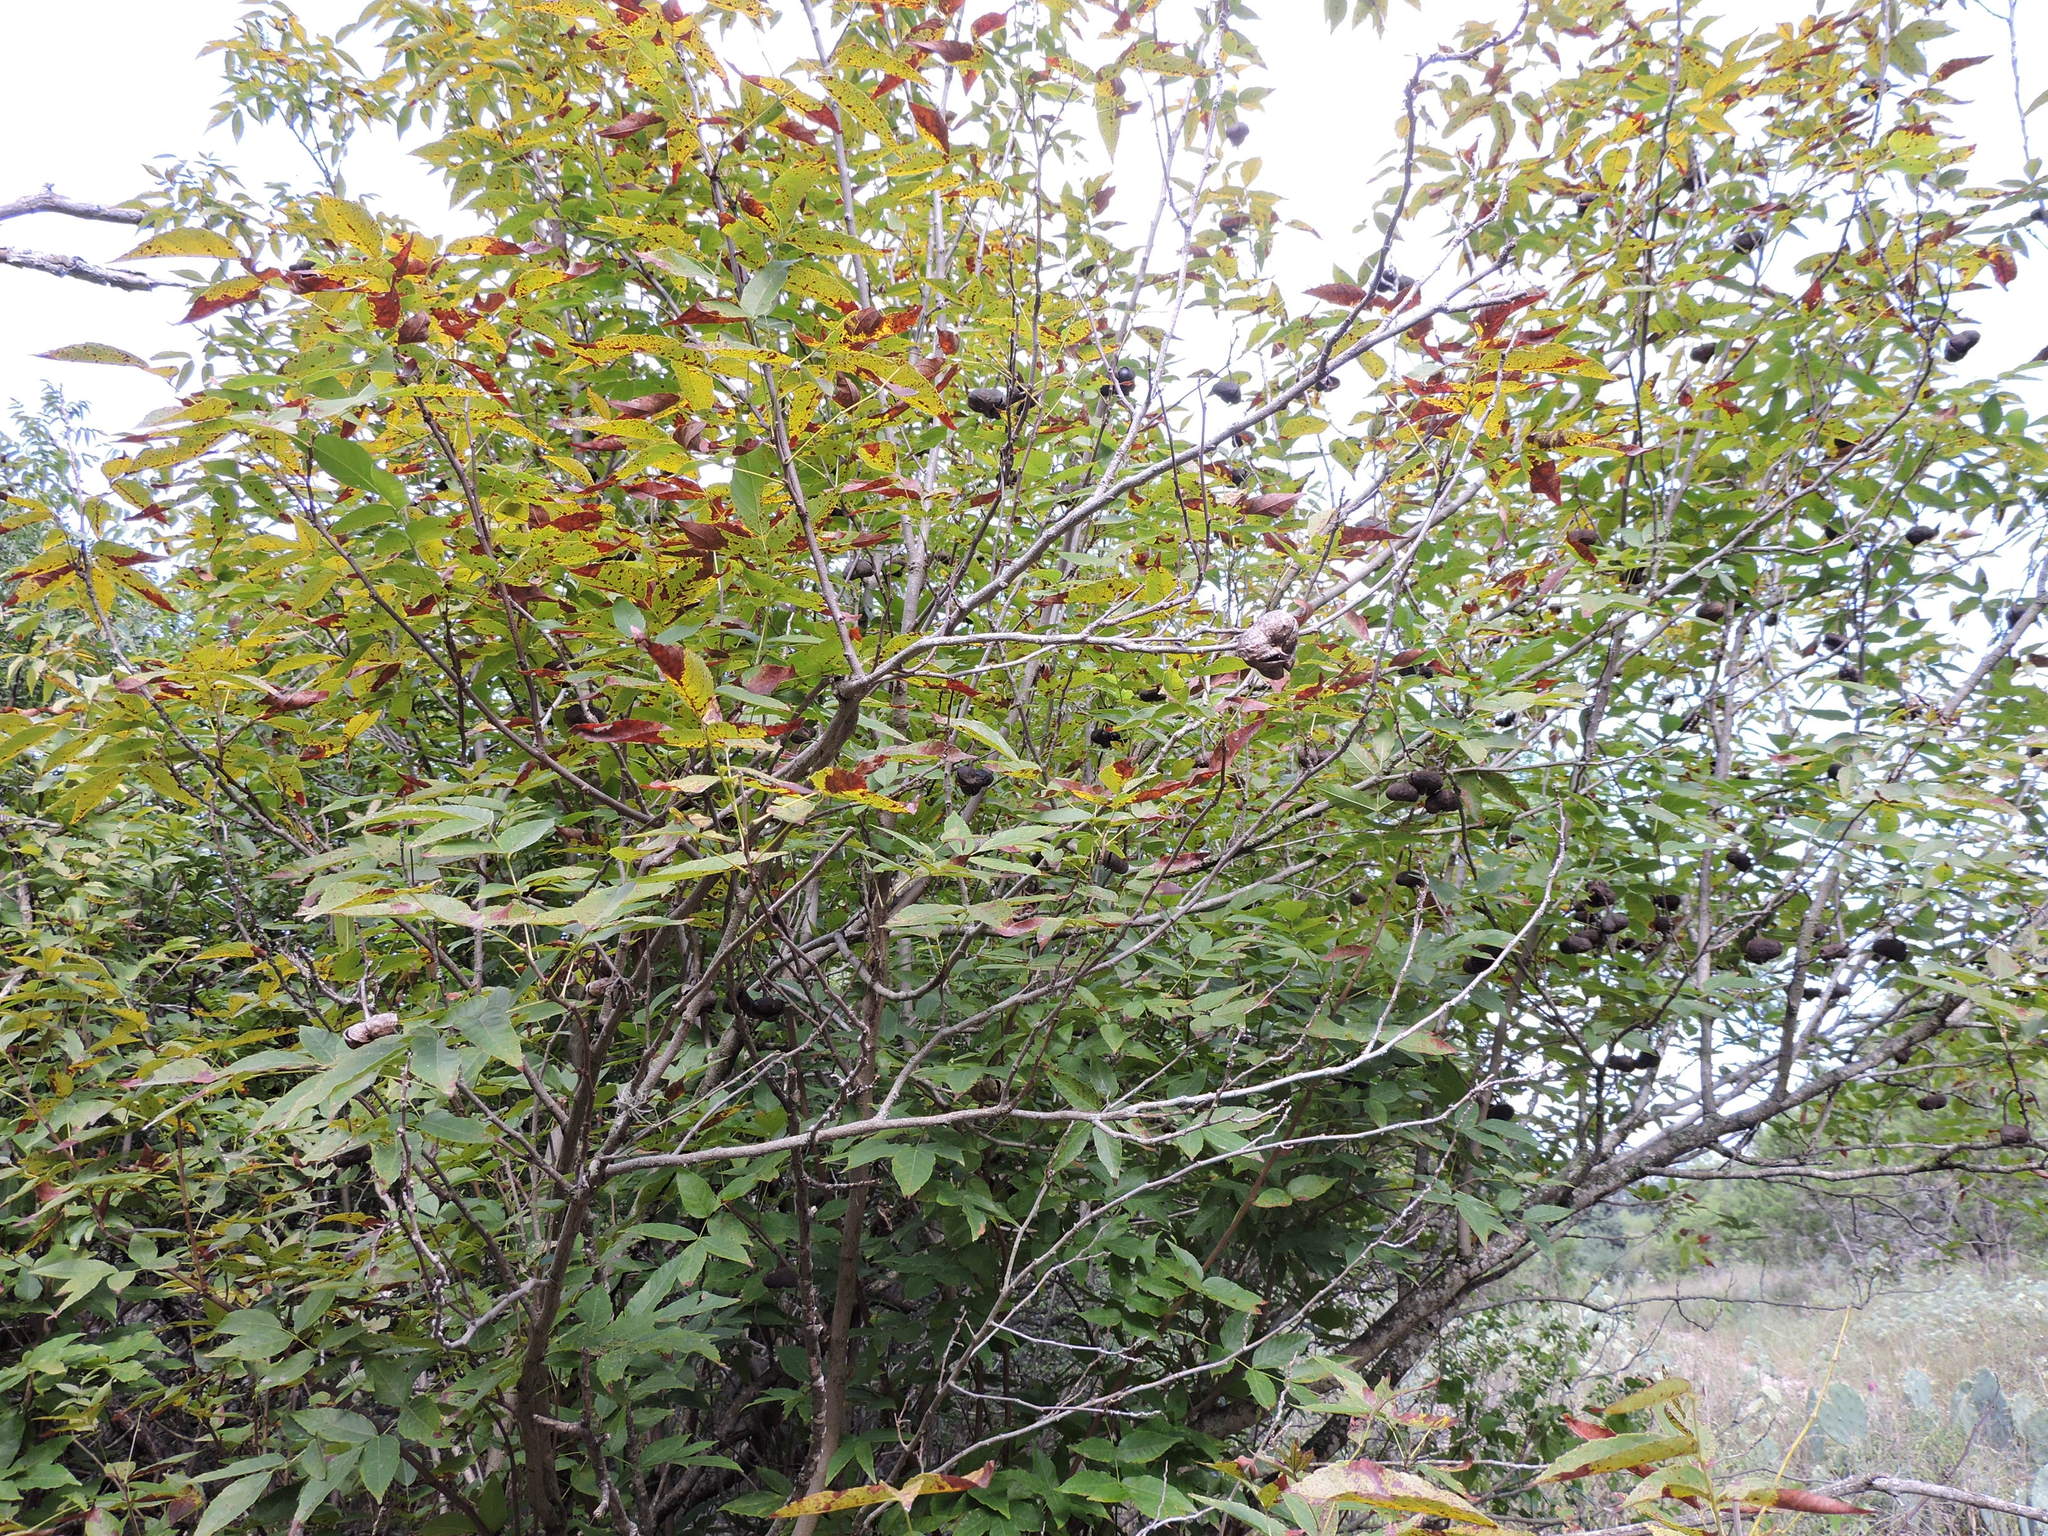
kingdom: Plantae
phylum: Tracheophyta
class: Magnoliopsida
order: Sapindales
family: Sapindaceae
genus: Ungnadia
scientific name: Ungnadia speciosa
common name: Texas-buckeye
